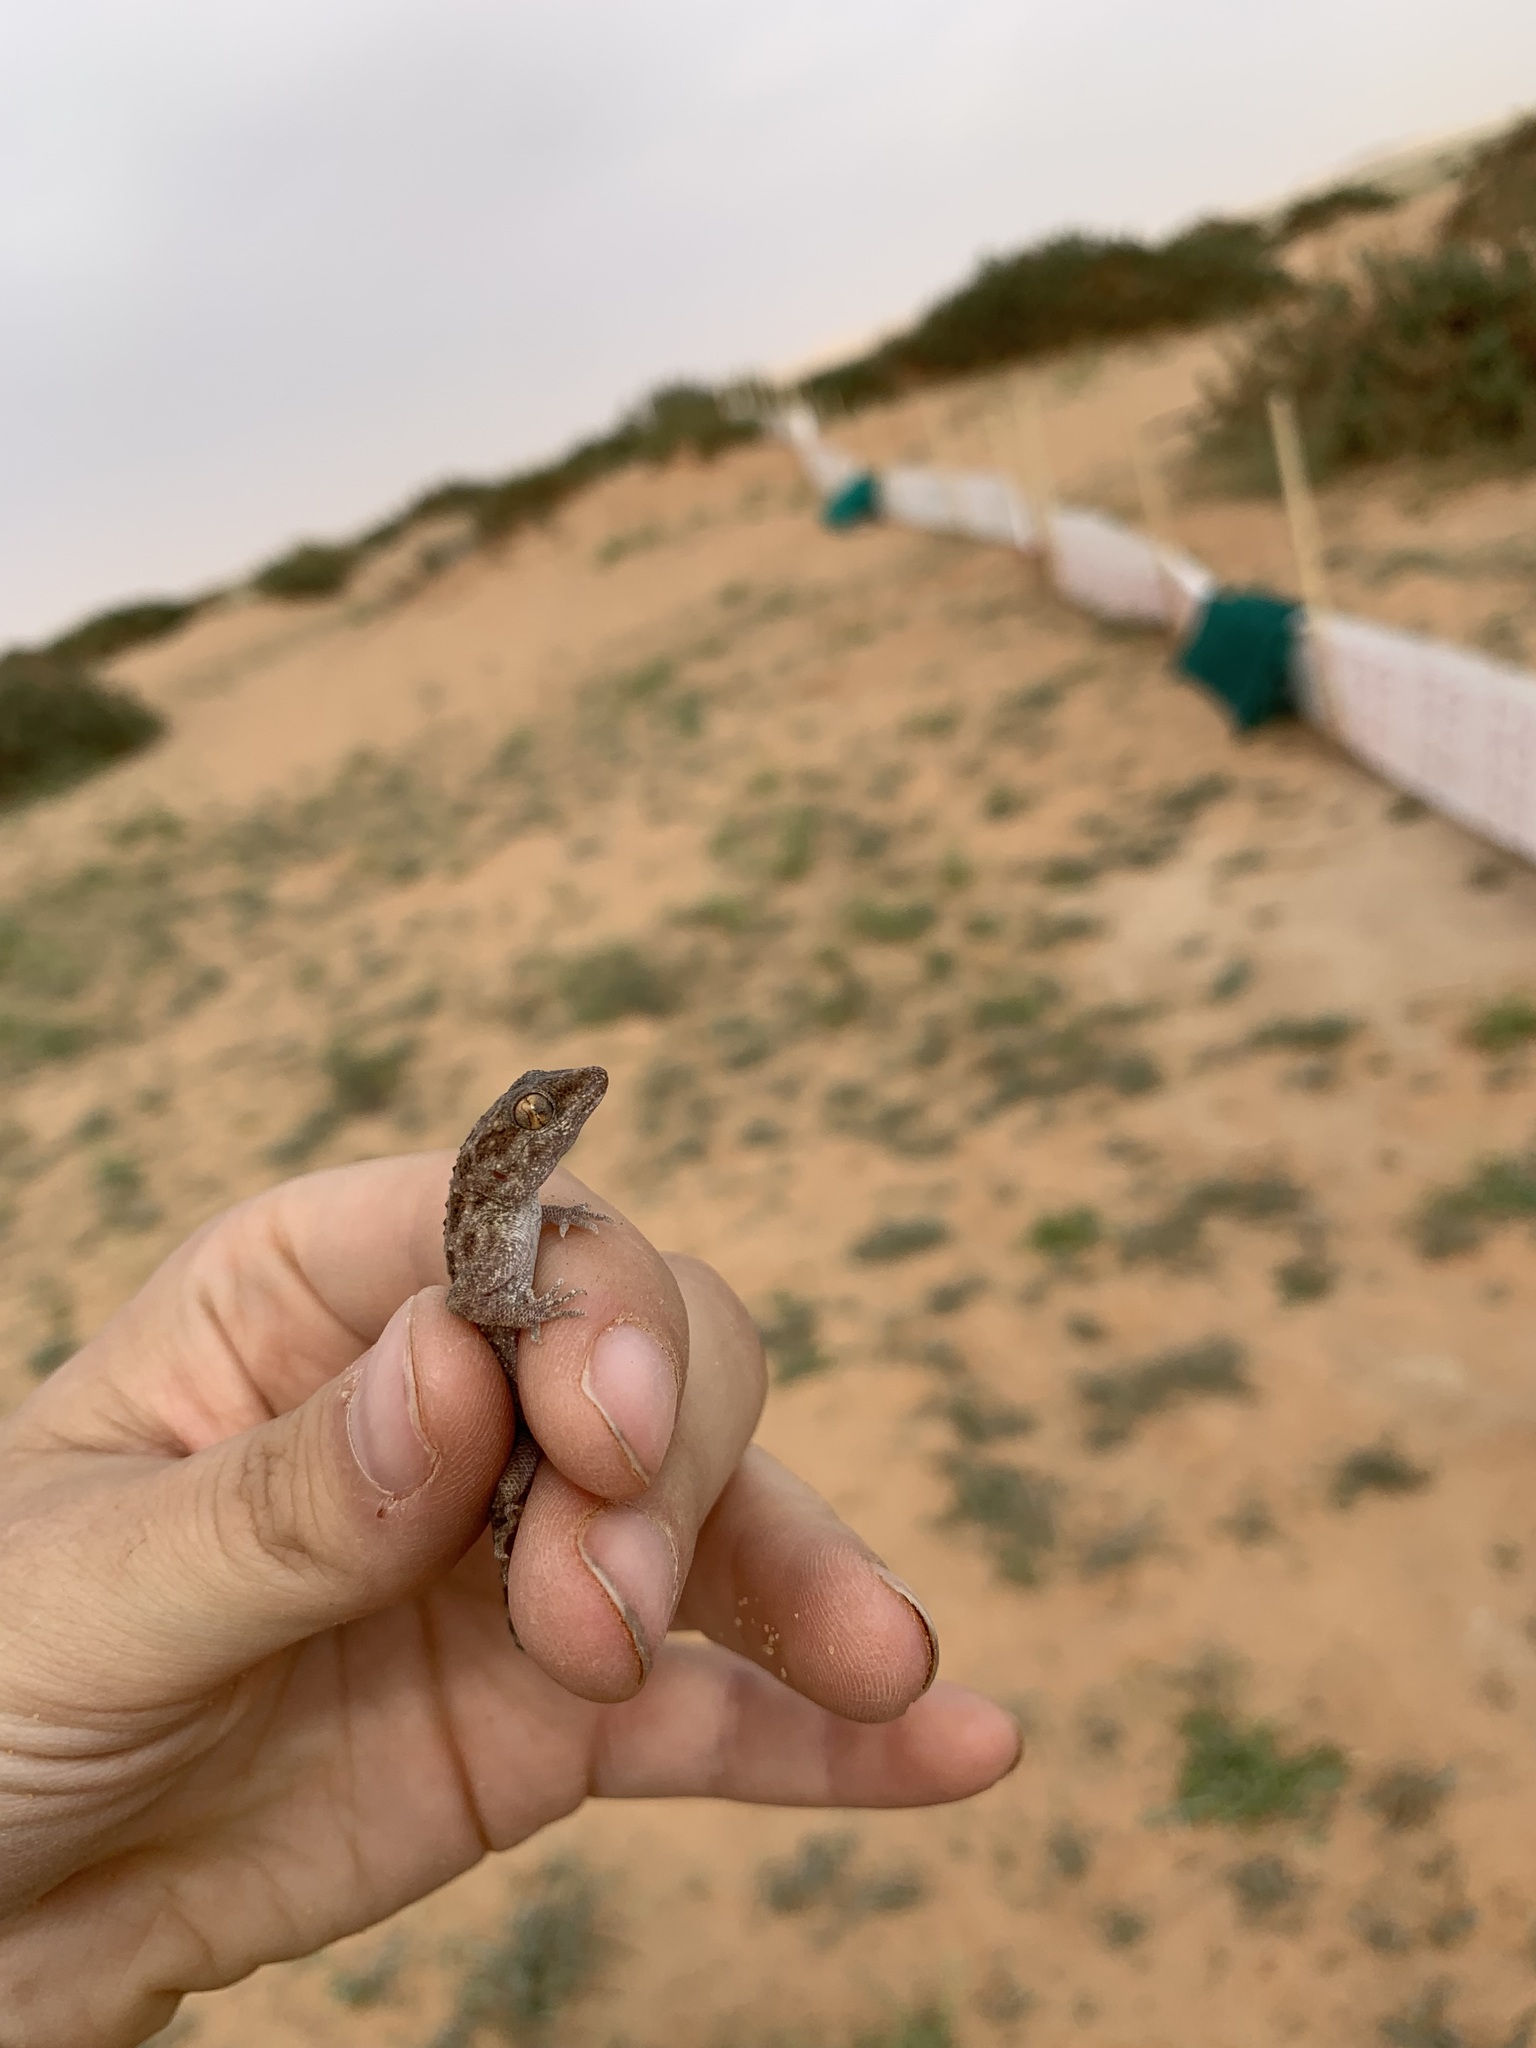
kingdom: Animalia
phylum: Chordata
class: Squamata
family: Gekkonidae
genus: Bunopus
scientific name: Bunopus tuberculatus
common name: Southern tuberculated gecko
